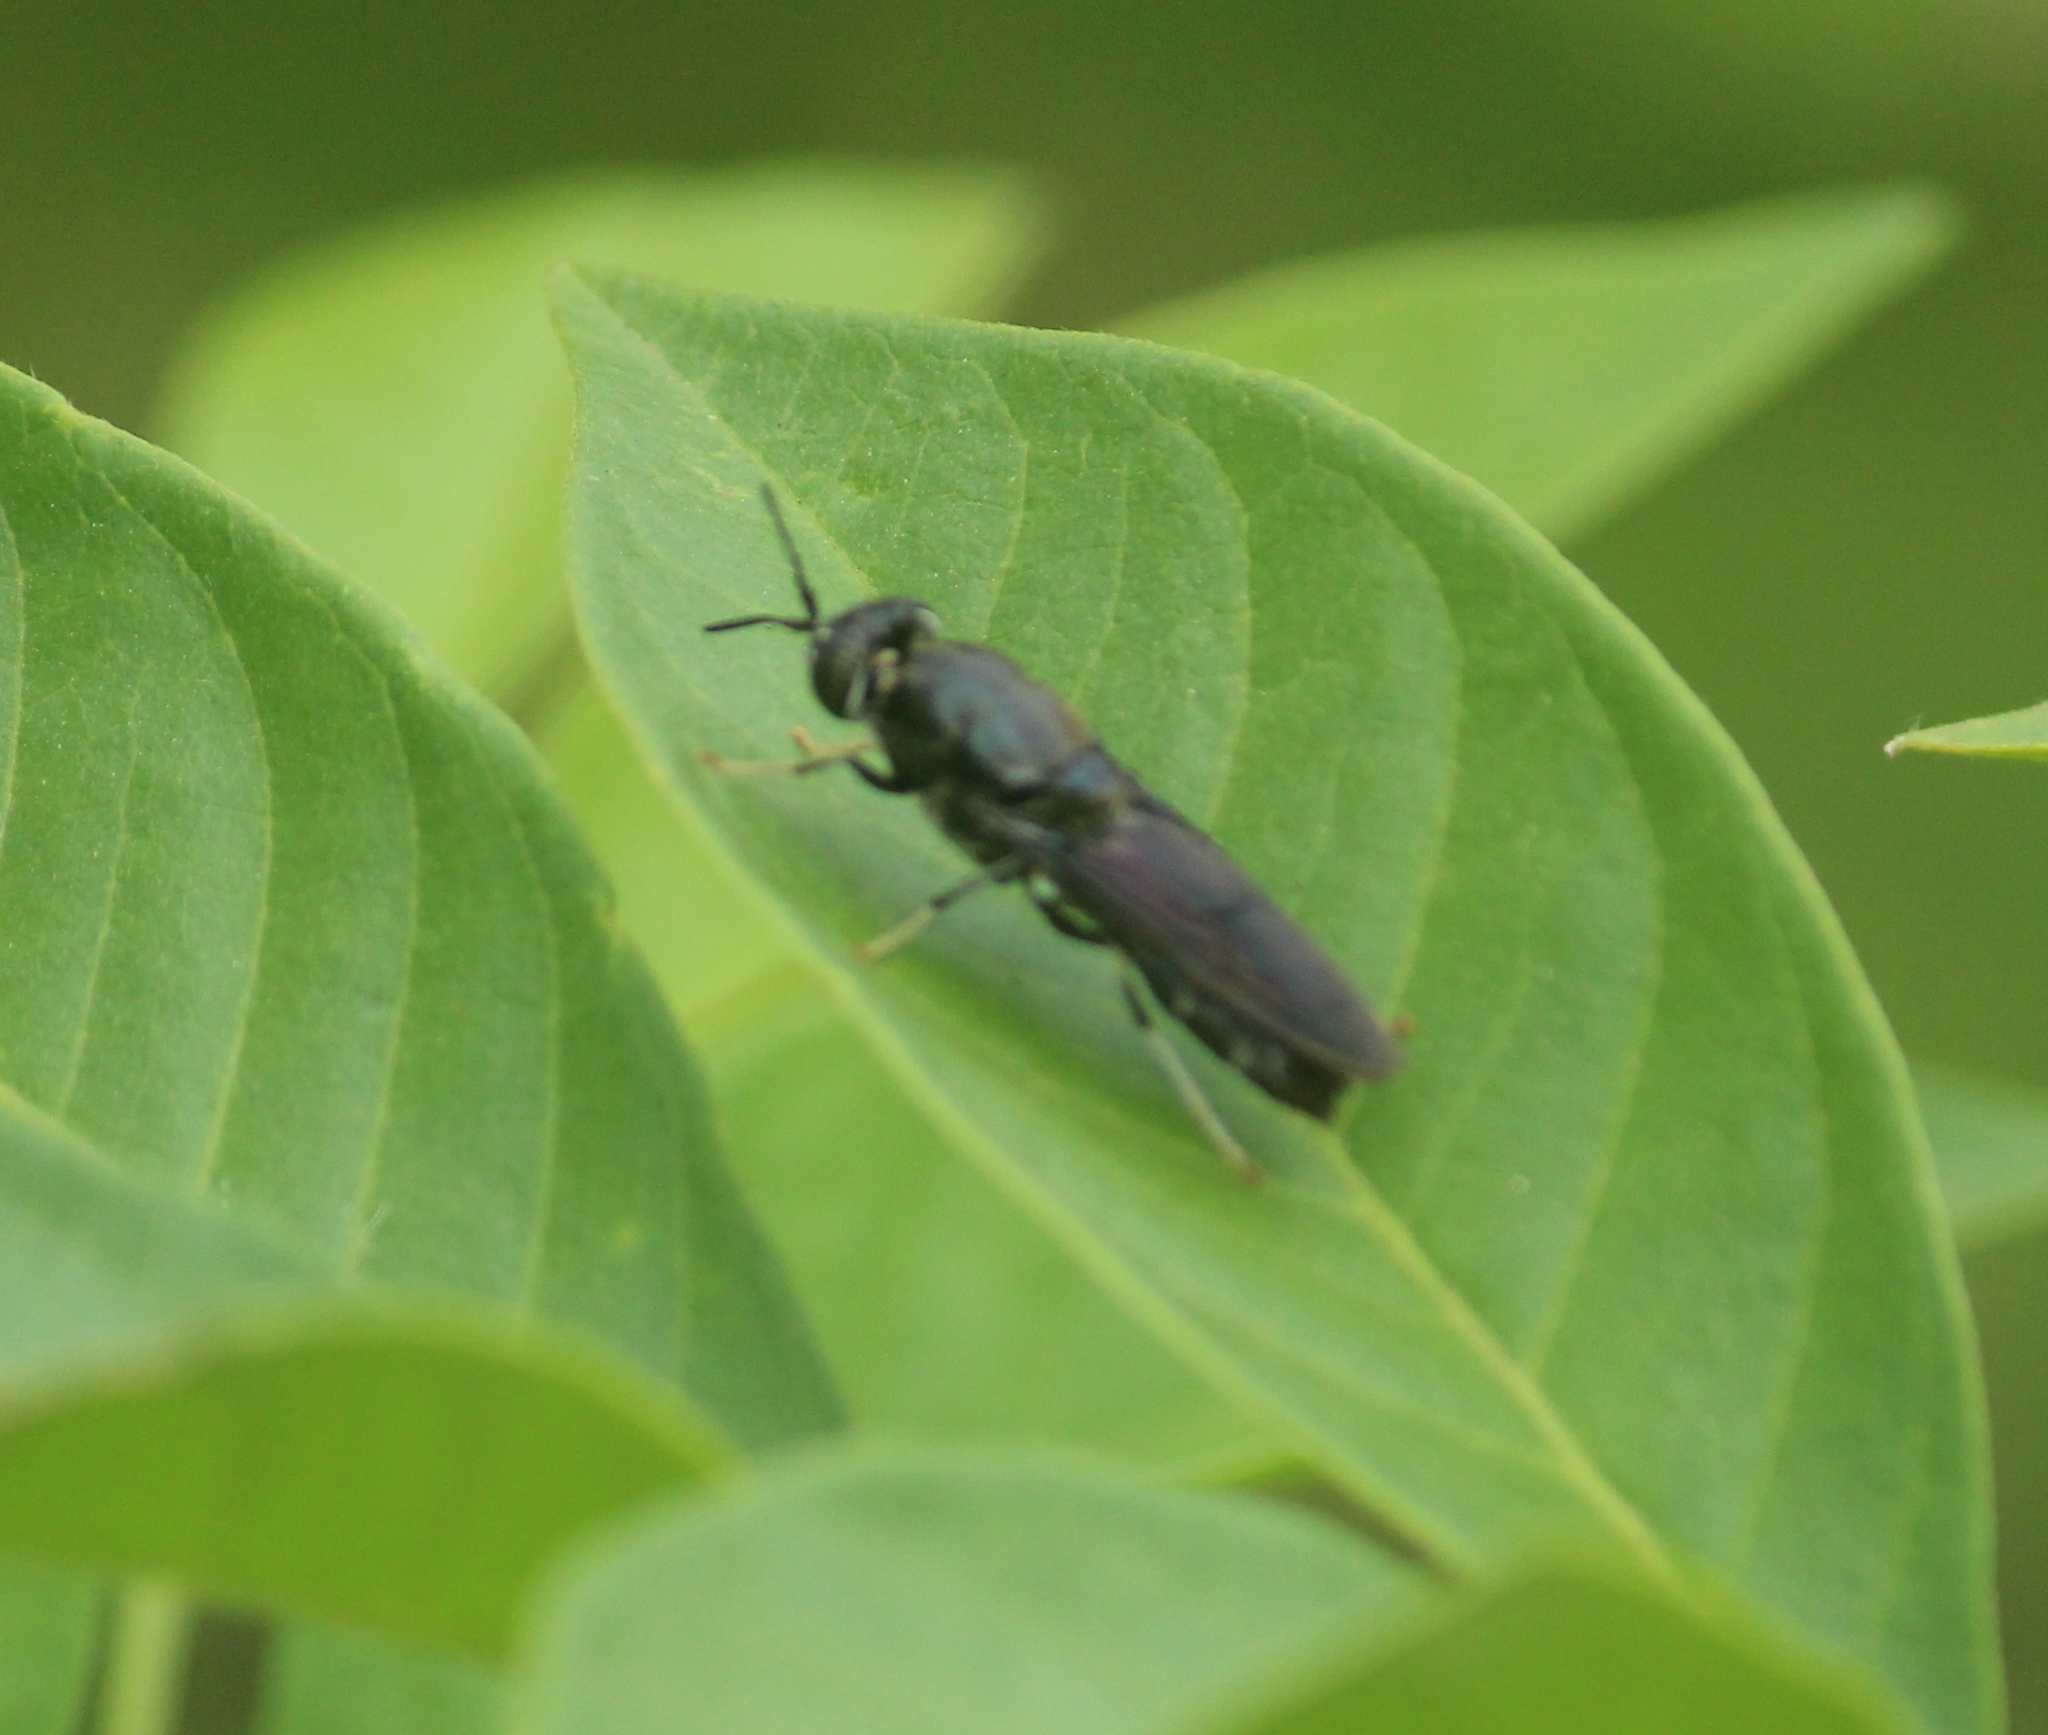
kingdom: Animalia
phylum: Arthropoda
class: Insecta
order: Diptera
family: Stratiomyidae
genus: Hermetia
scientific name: Hermetia illucens
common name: Black soldier fly
